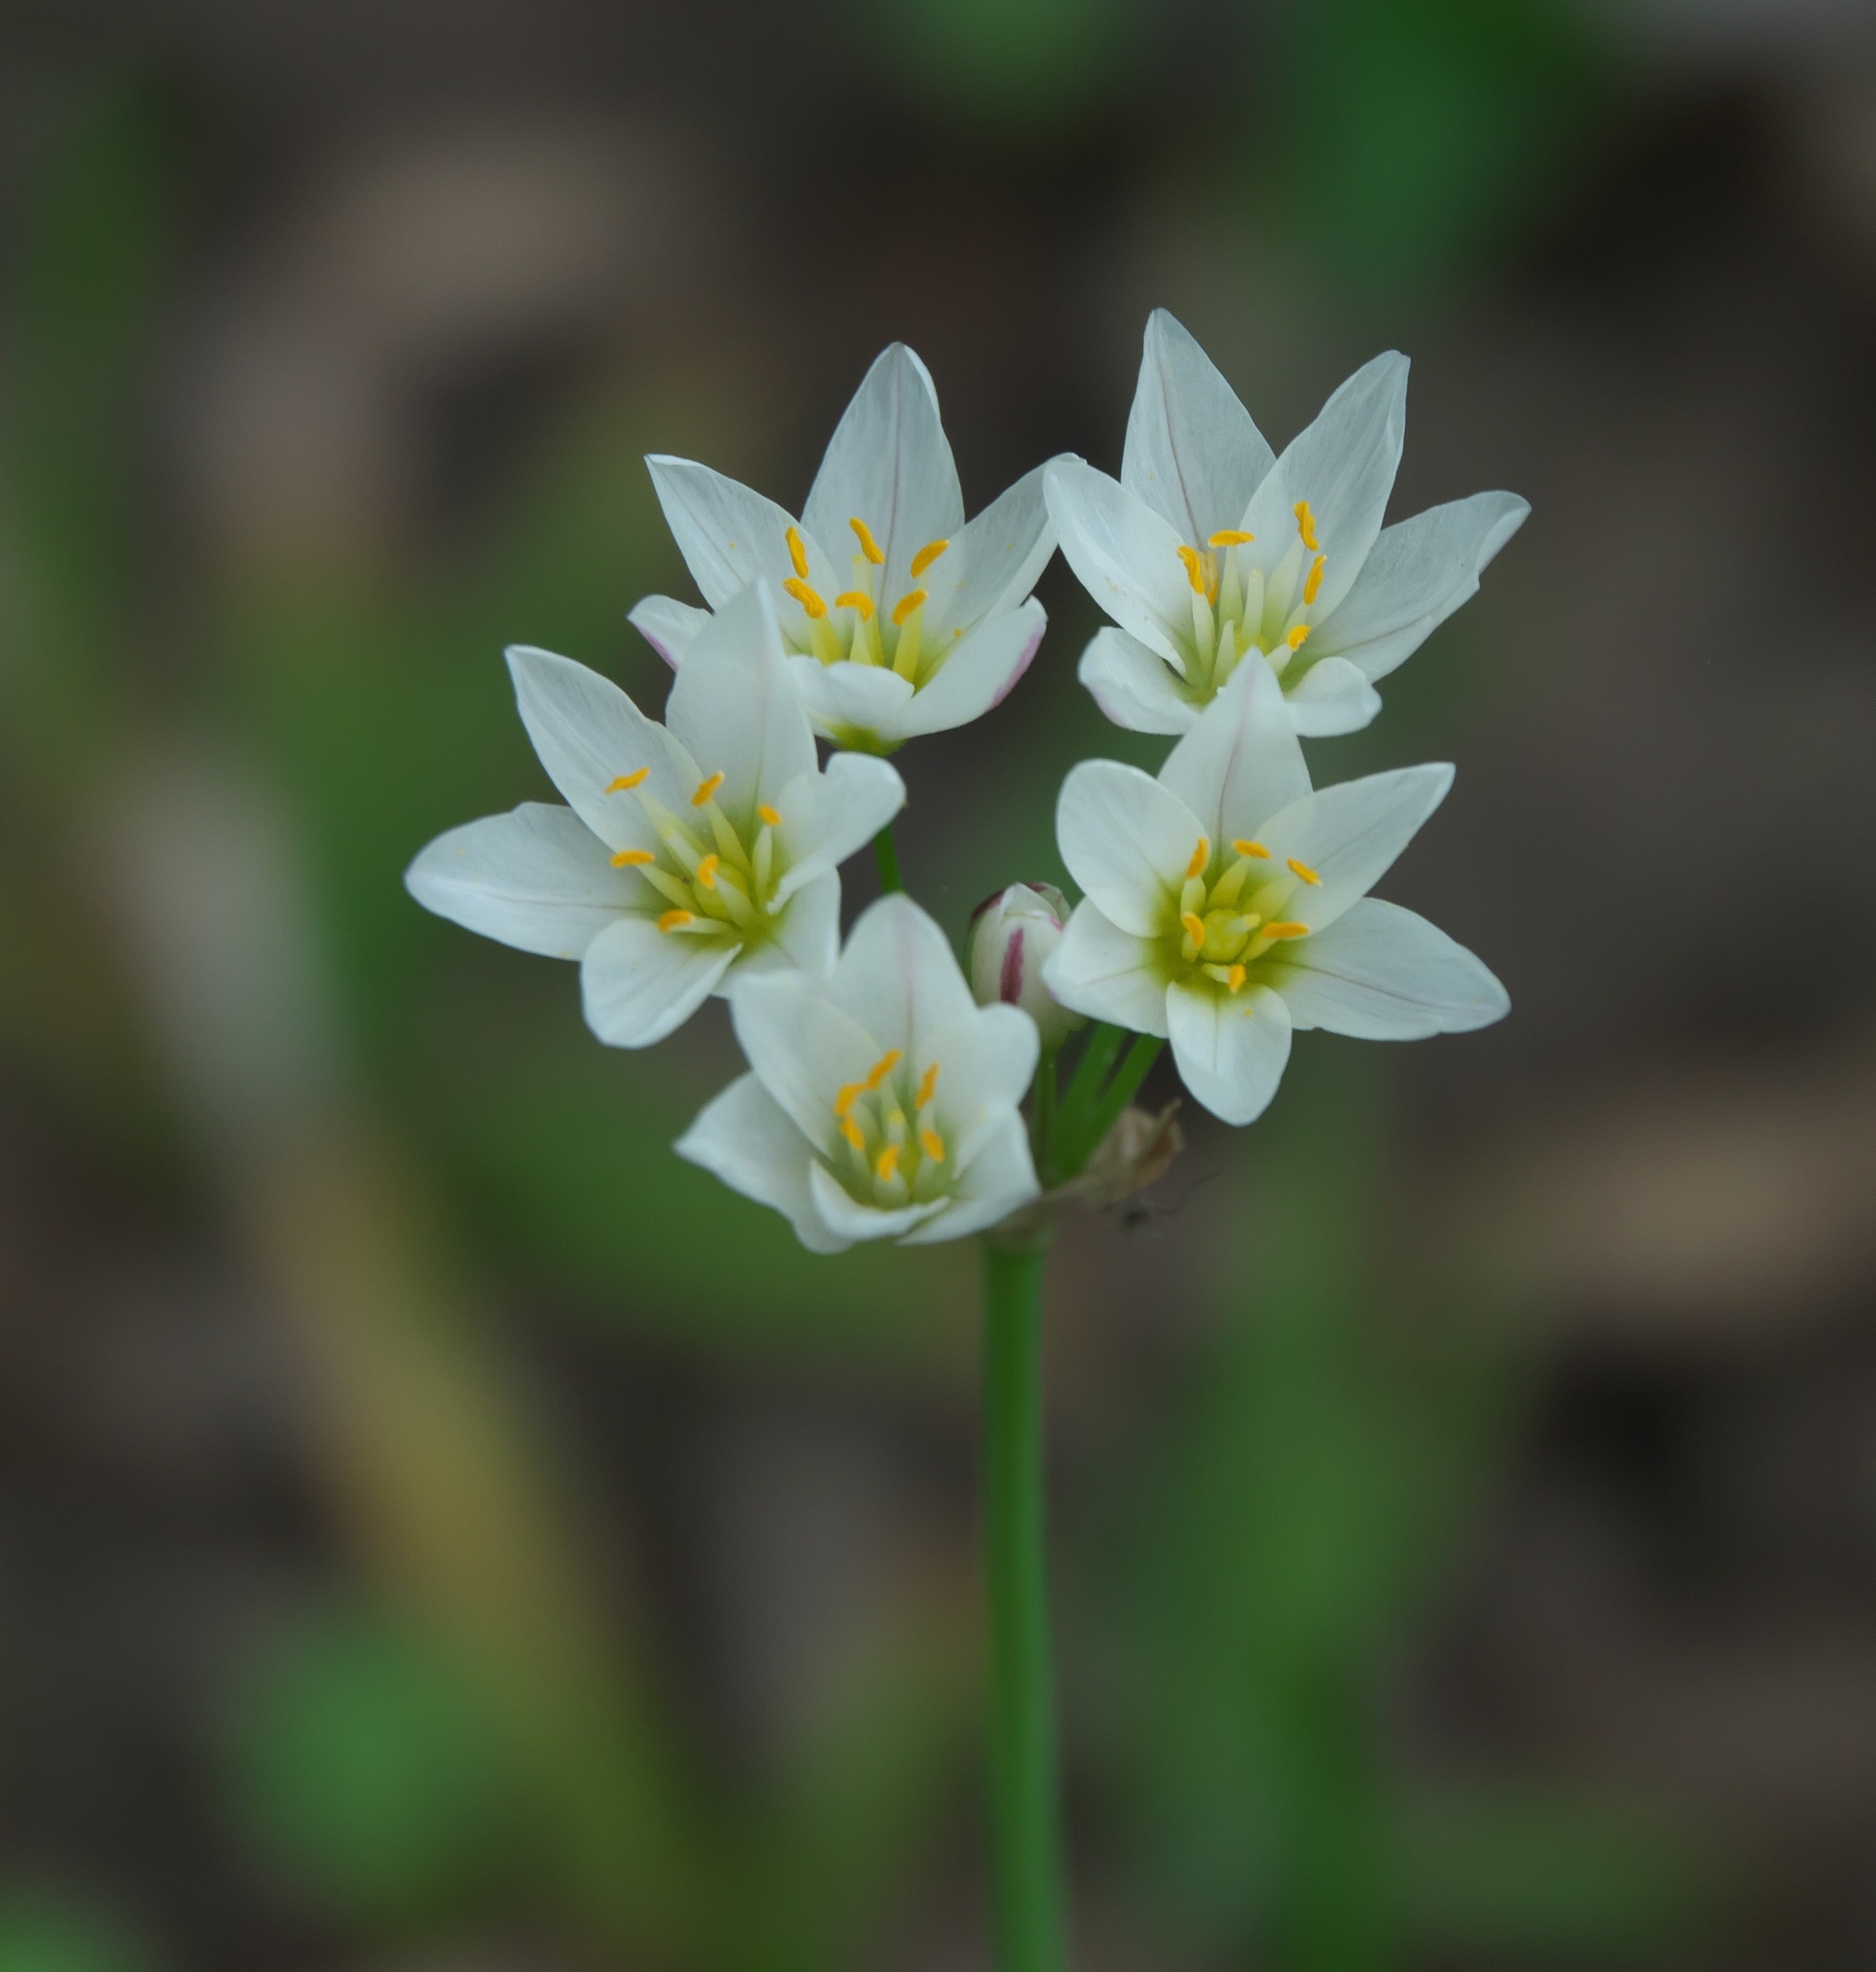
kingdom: Plantae
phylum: Tracheophyta
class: Liliopsida
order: Asparagales
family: Amaryllidaceae
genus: Nothoscordum
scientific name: Nothoscordum bivalve
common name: Crow-poison
